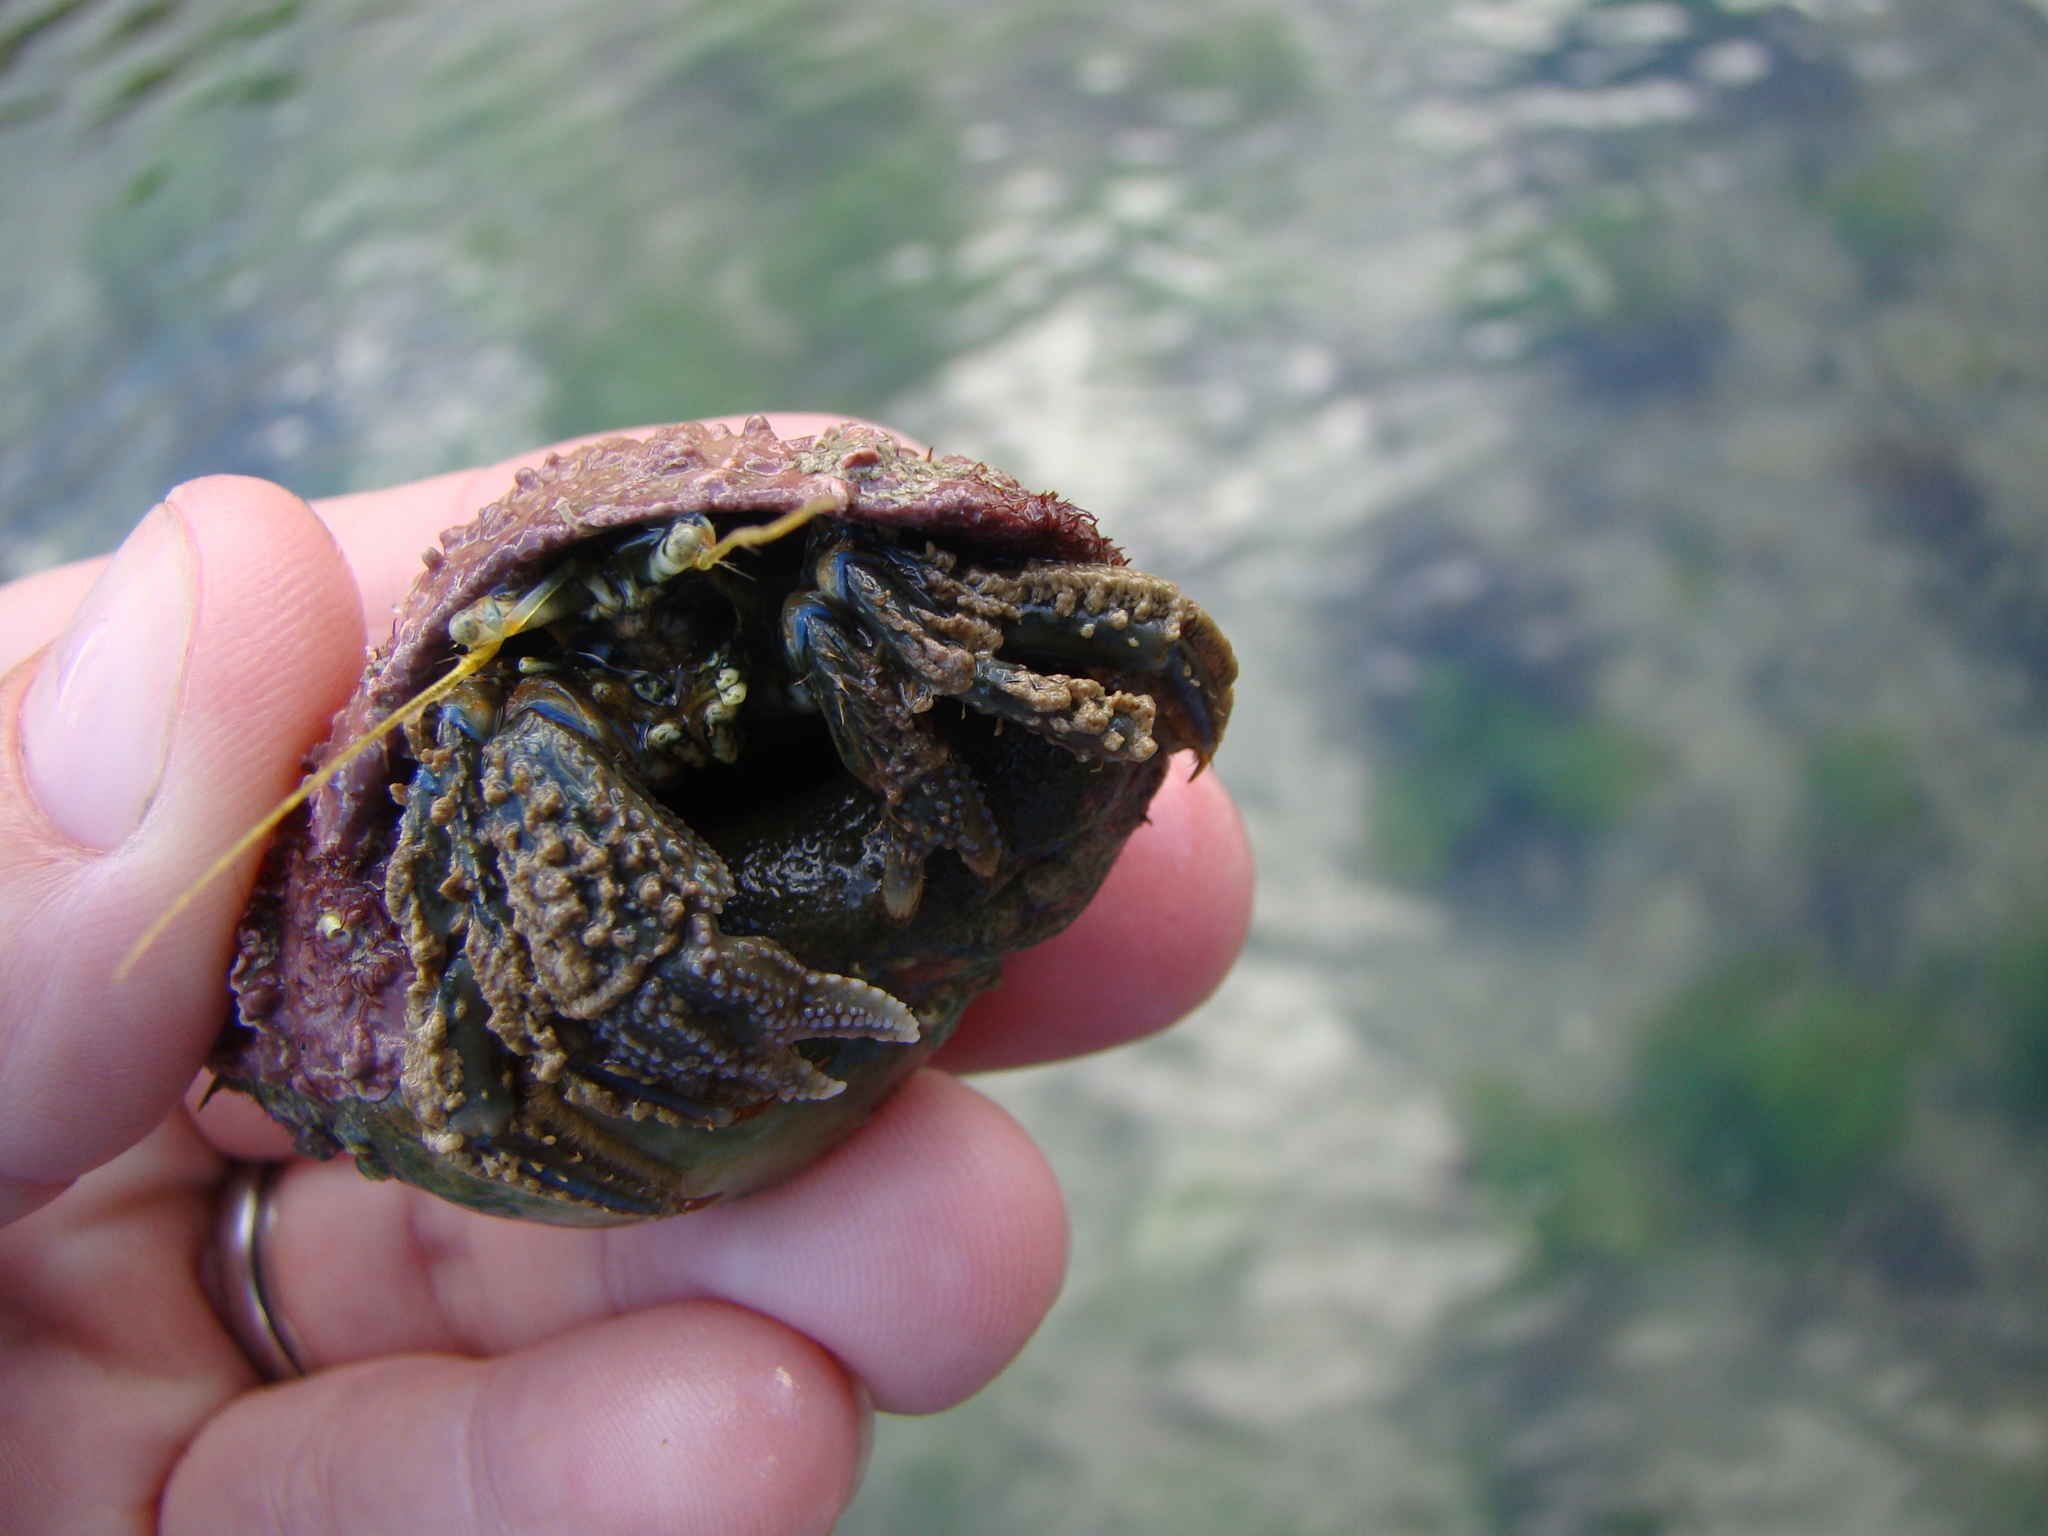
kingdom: Animalia
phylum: Arthropoda
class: Malacostraca
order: Decapoda
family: Paguridae
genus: Pagurus
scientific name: Pagurus novizealandiae
